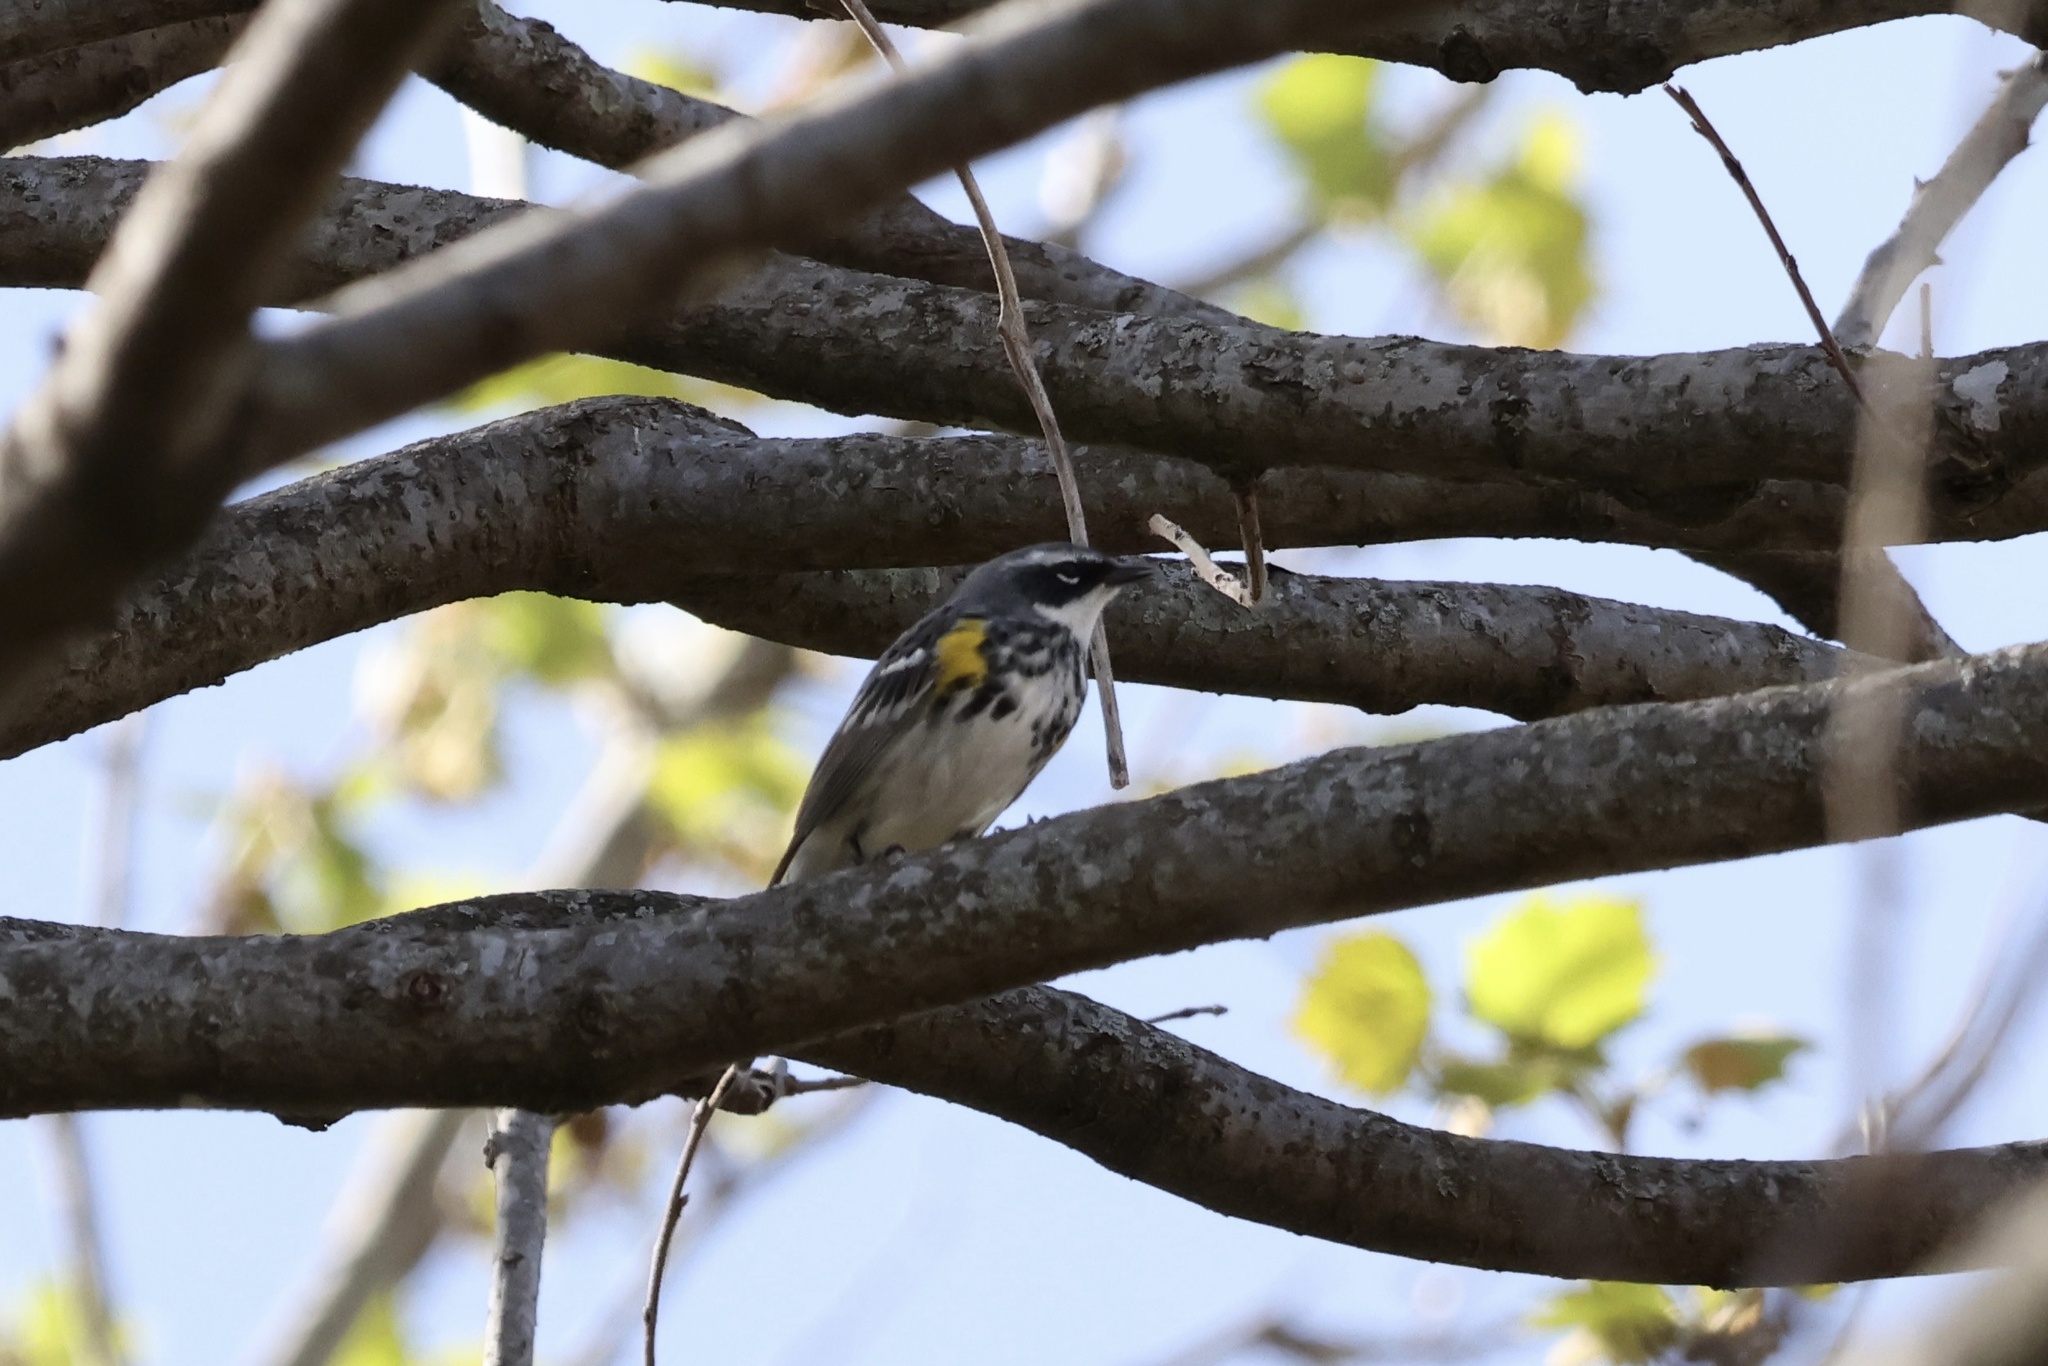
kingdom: Animalia
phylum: Chordata
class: Aves
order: Passeriformes
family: Parulidae
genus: Setophaga
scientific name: Setophaga coronata
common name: Myrtle warbler
